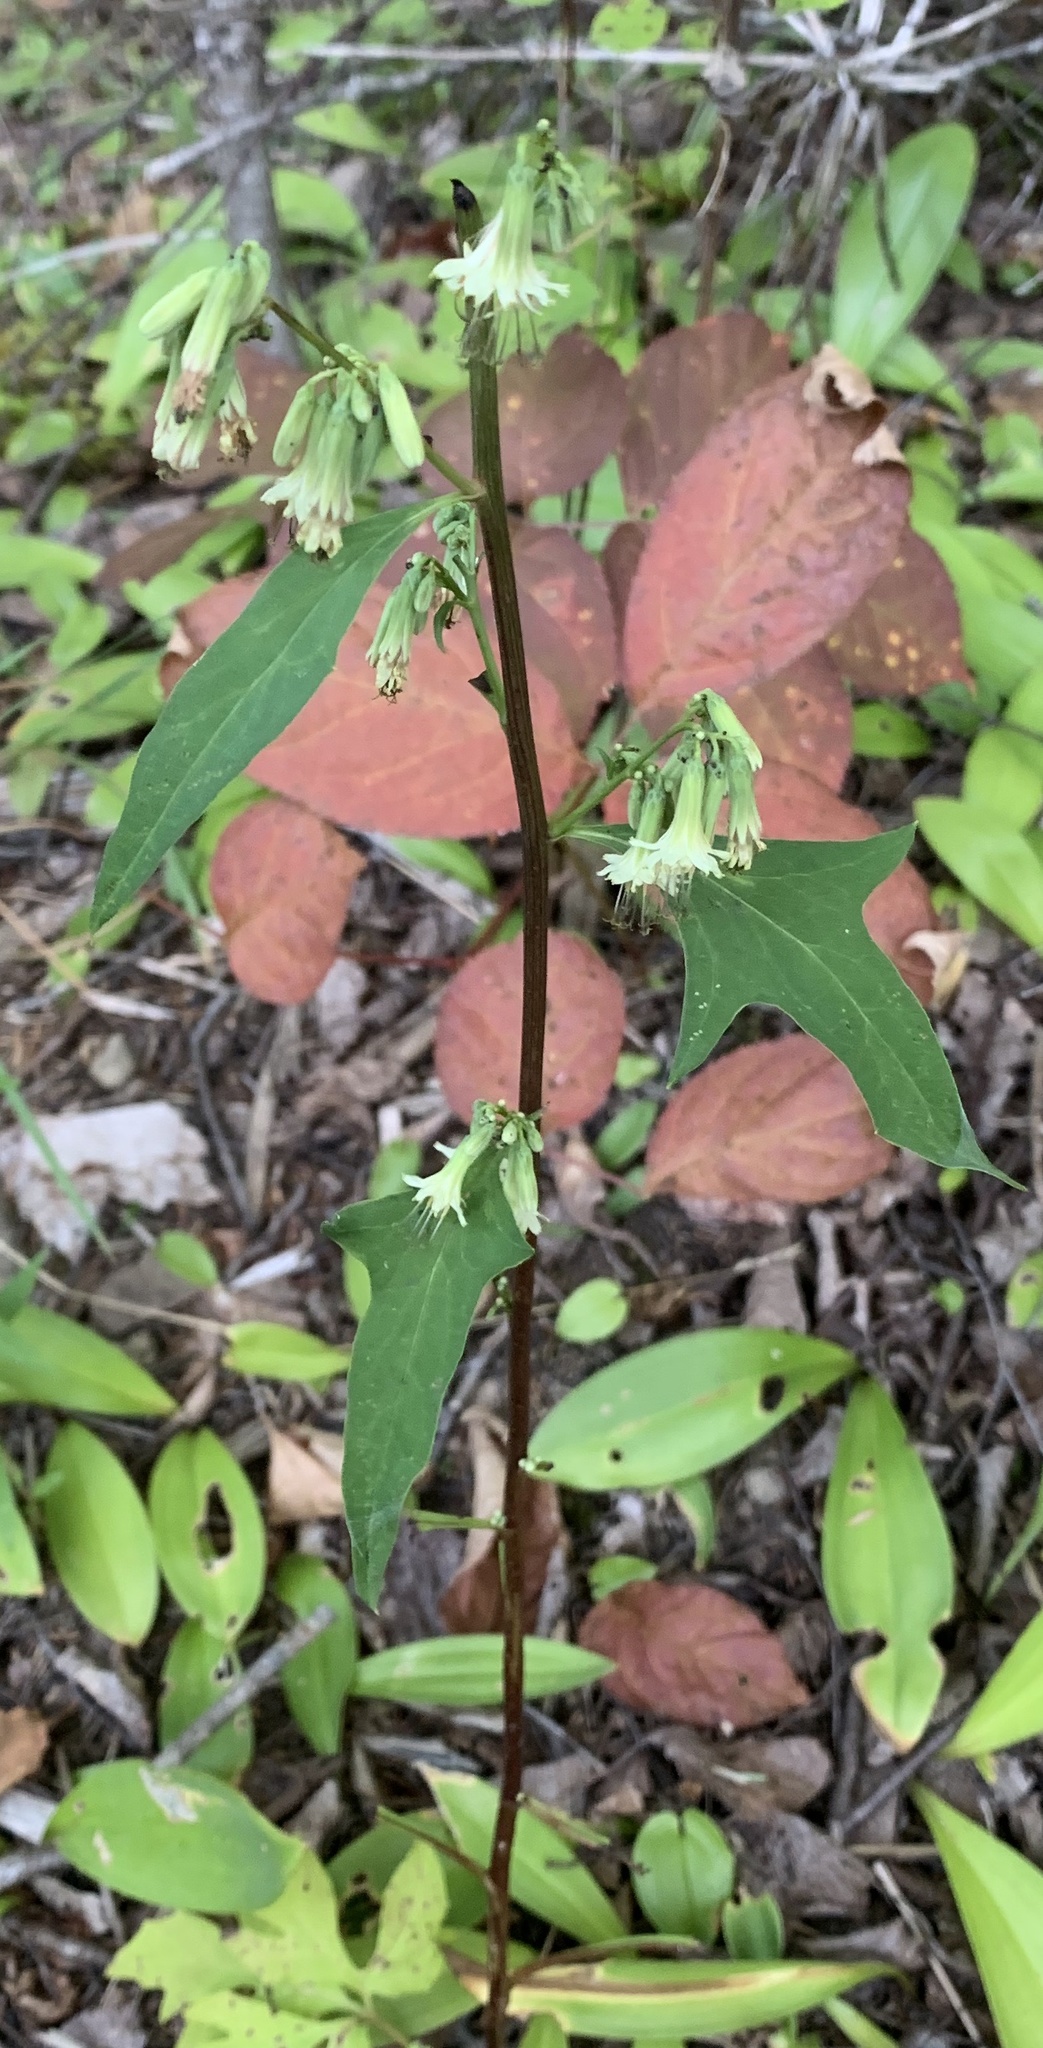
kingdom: Plantae
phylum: Tracheophyta
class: Magnoliopsida
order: Asterales
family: Asteraceae
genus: Nabalus
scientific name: Nabalus trifoliolatus
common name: Gall-of-the-earth
